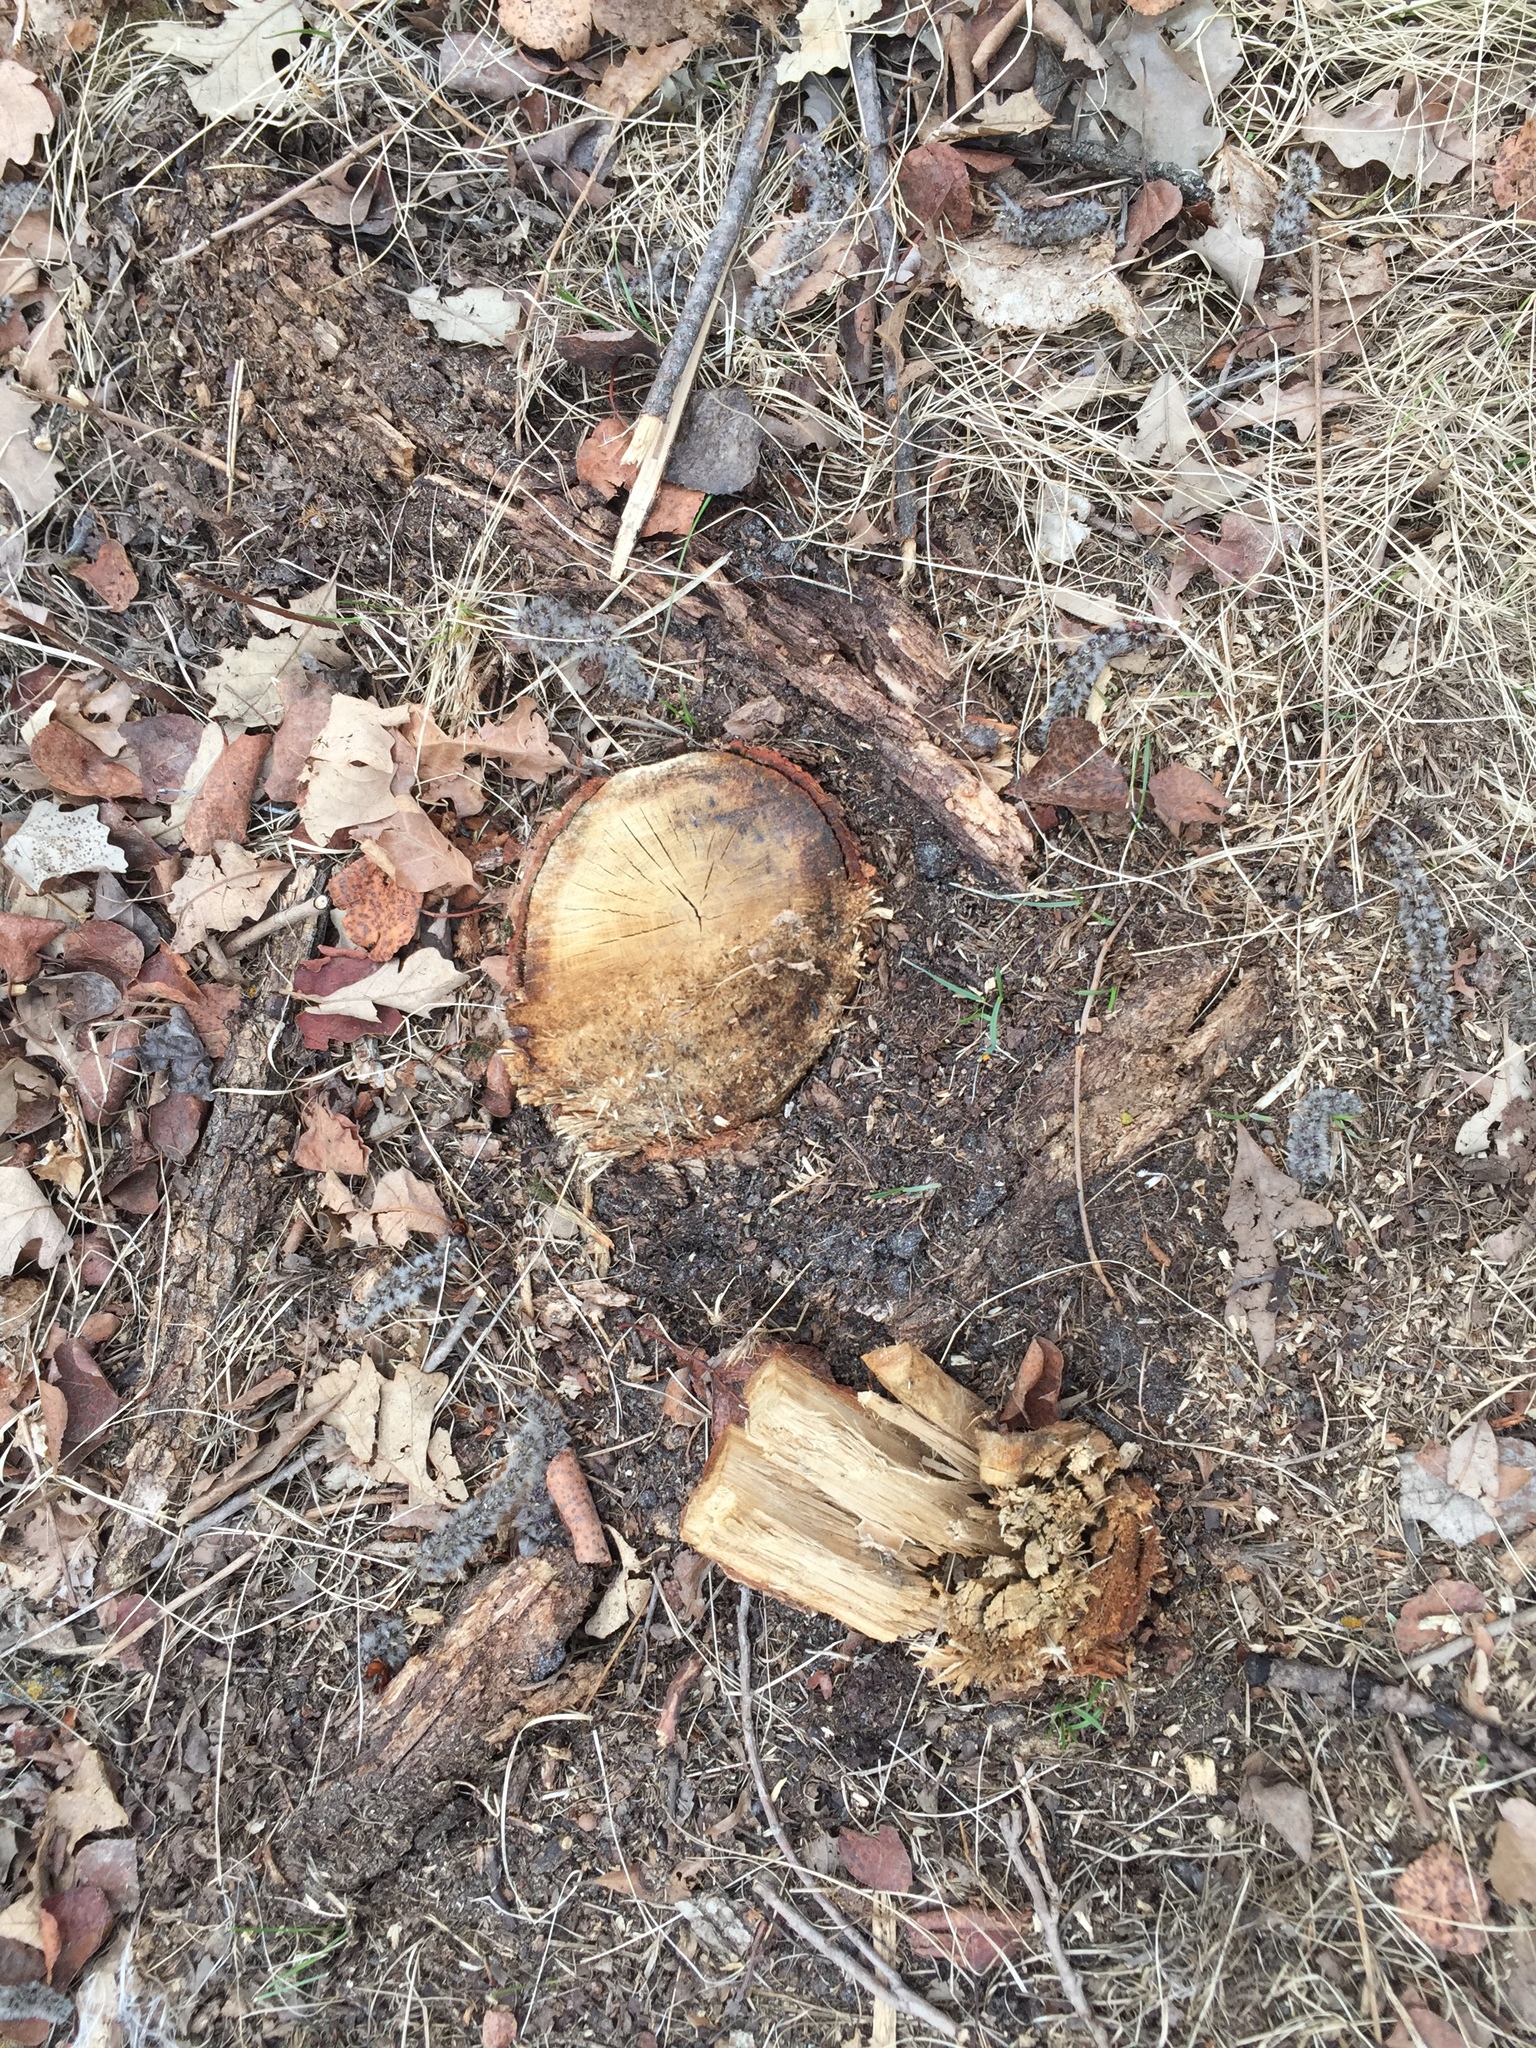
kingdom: Plantae
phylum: Tracheophyta
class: Magnoliopsida
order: Fagales
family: Fagaceae
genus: Quercus
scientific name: Quercus macrocarpa
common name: Bur oak
